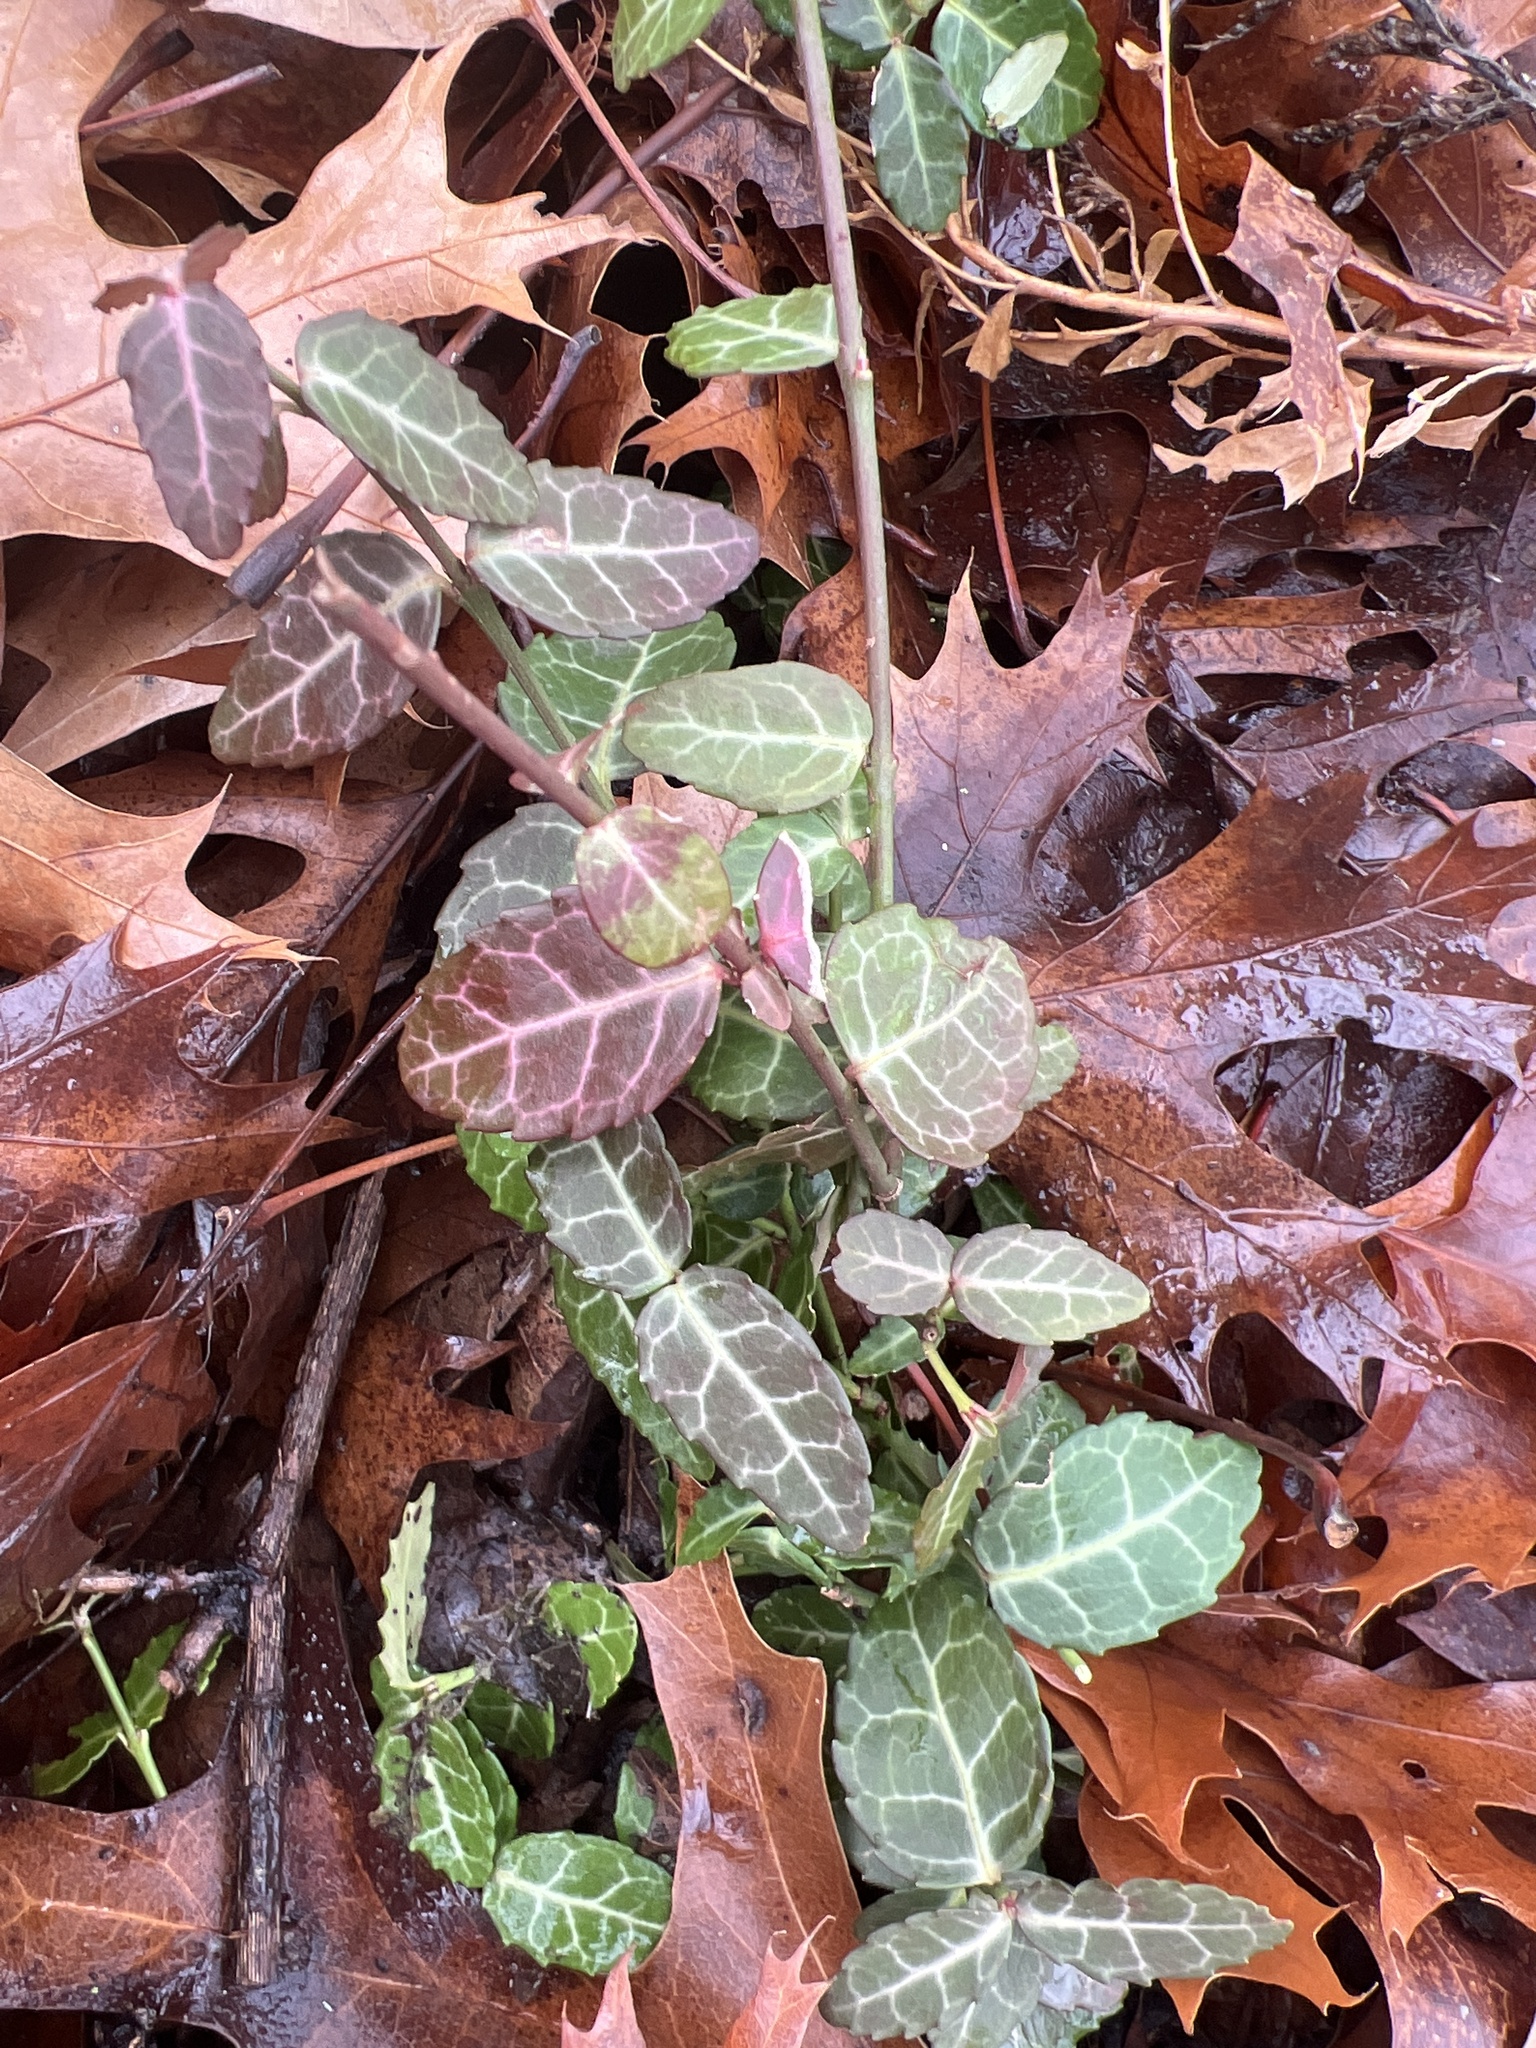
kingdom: Plantae
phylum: Tracheophyta
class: Magnoliopsida
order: Celastrales
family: Celastraceae
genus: Euonymus
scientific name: Euonymus fortunei
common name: Climbing euonymus
